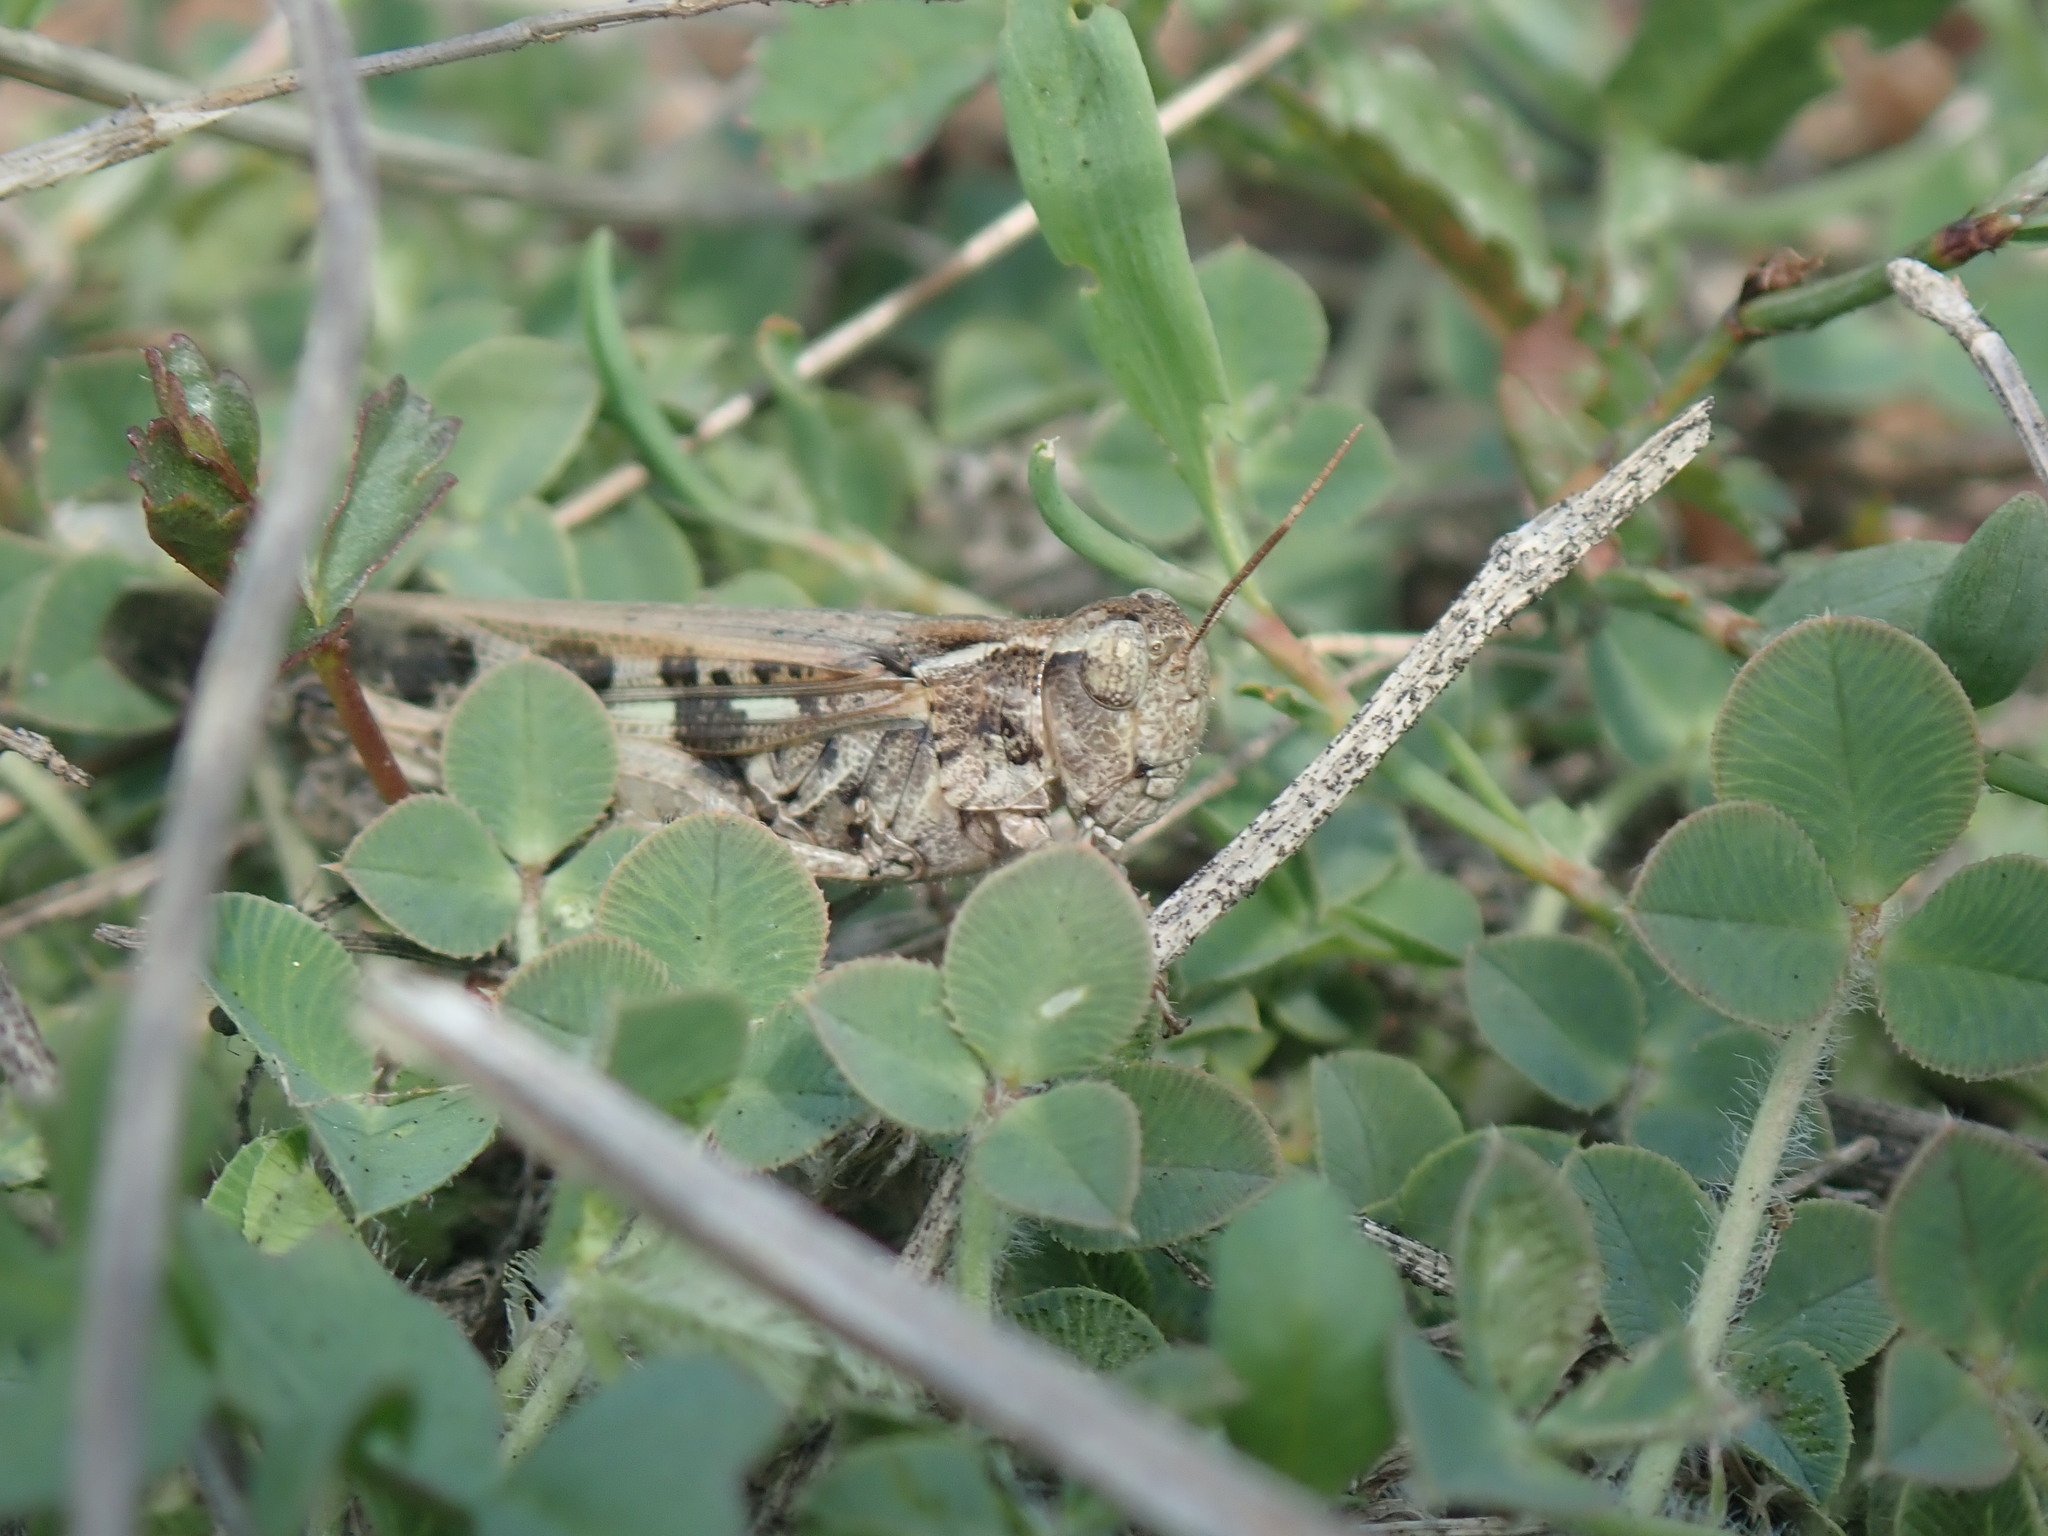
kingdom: Animalia
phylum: Arthropoda
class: Insecta
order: Orthoptera
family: Acrididae
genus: Aiolopus
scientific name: Aiolopus thalassinus
